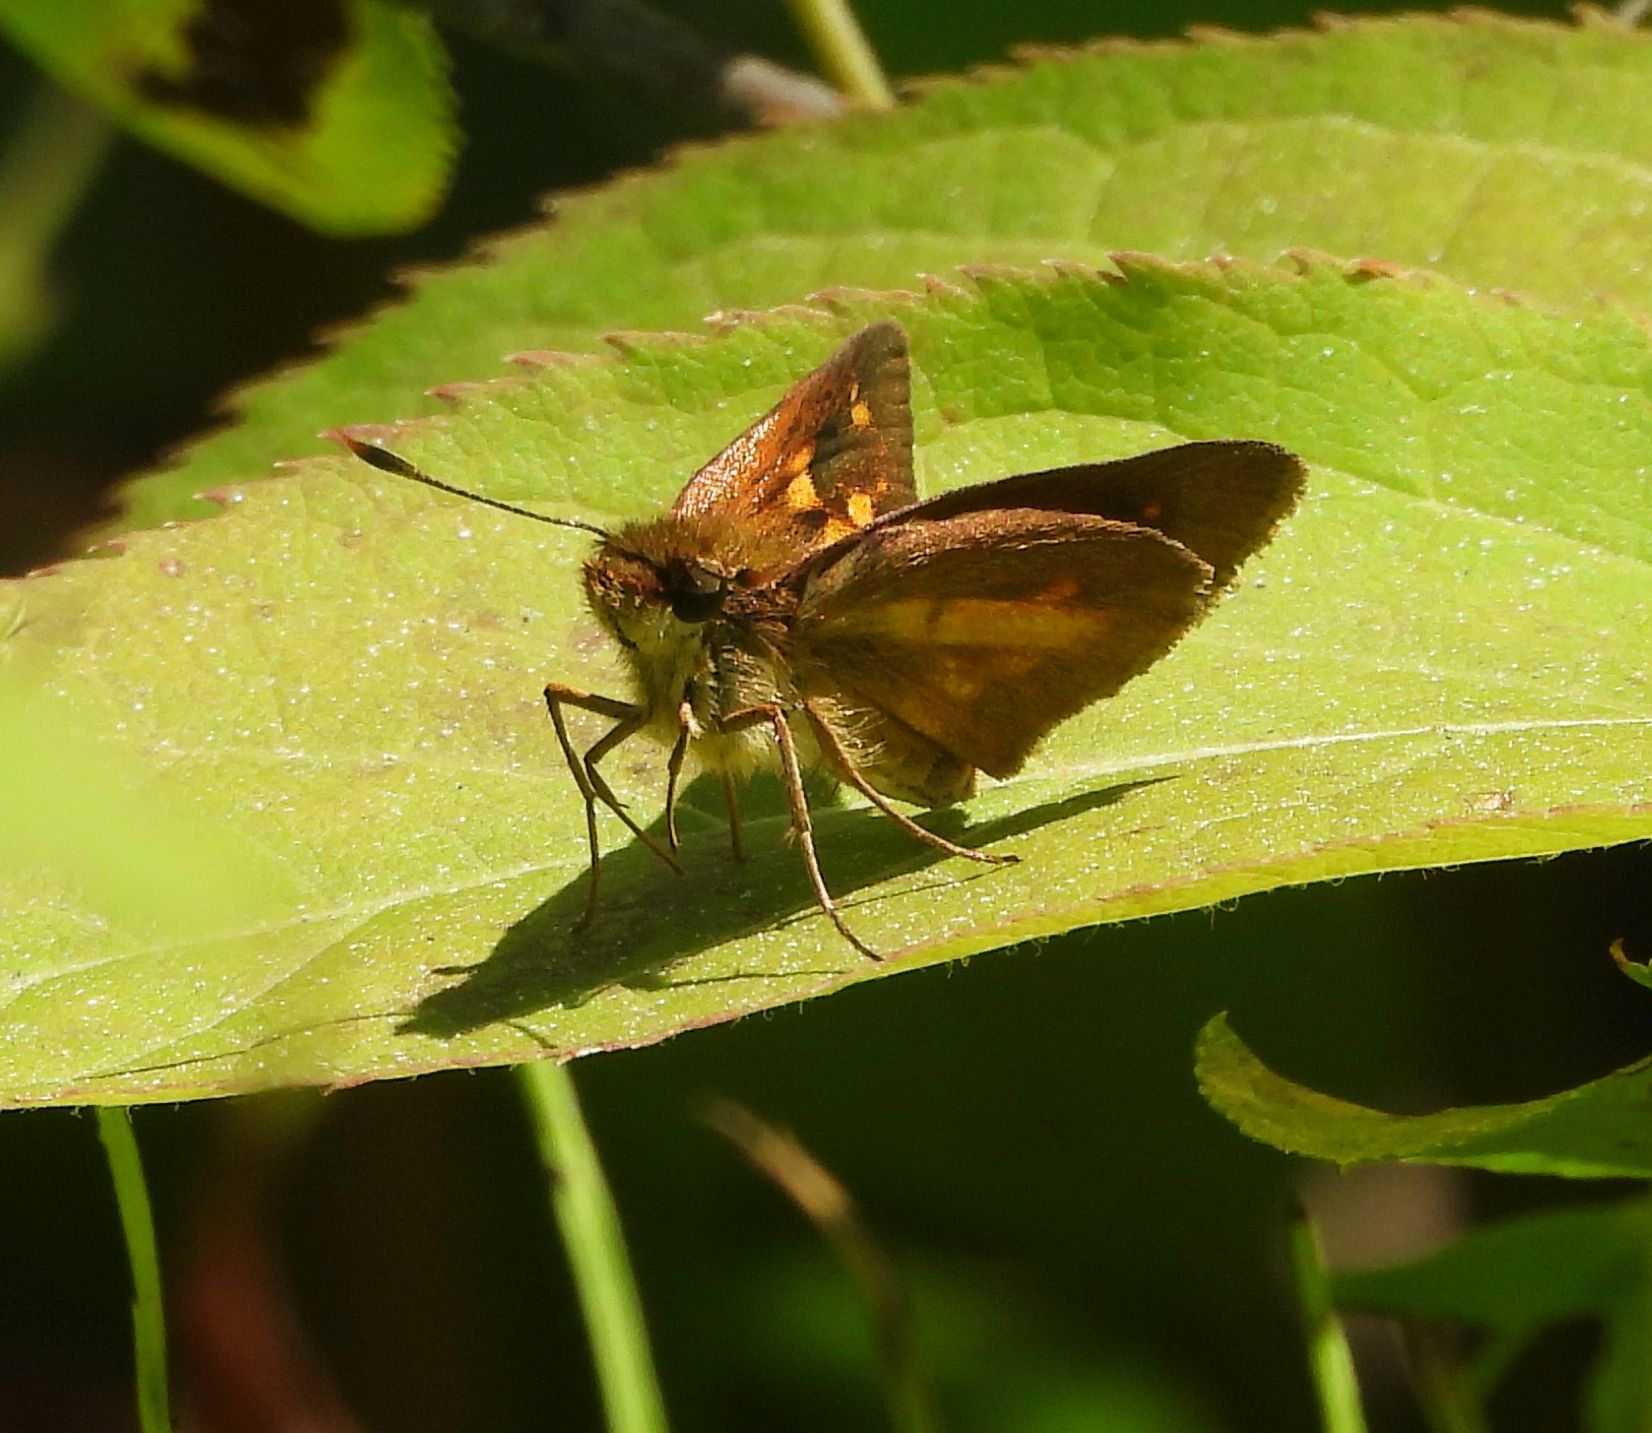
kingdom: Animalia
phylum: Arthropoda
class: Insecta
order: Lepidoptera
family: Hesperiidae
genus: Poanes
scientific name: Poanes viator
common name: Broad-winged skipper
